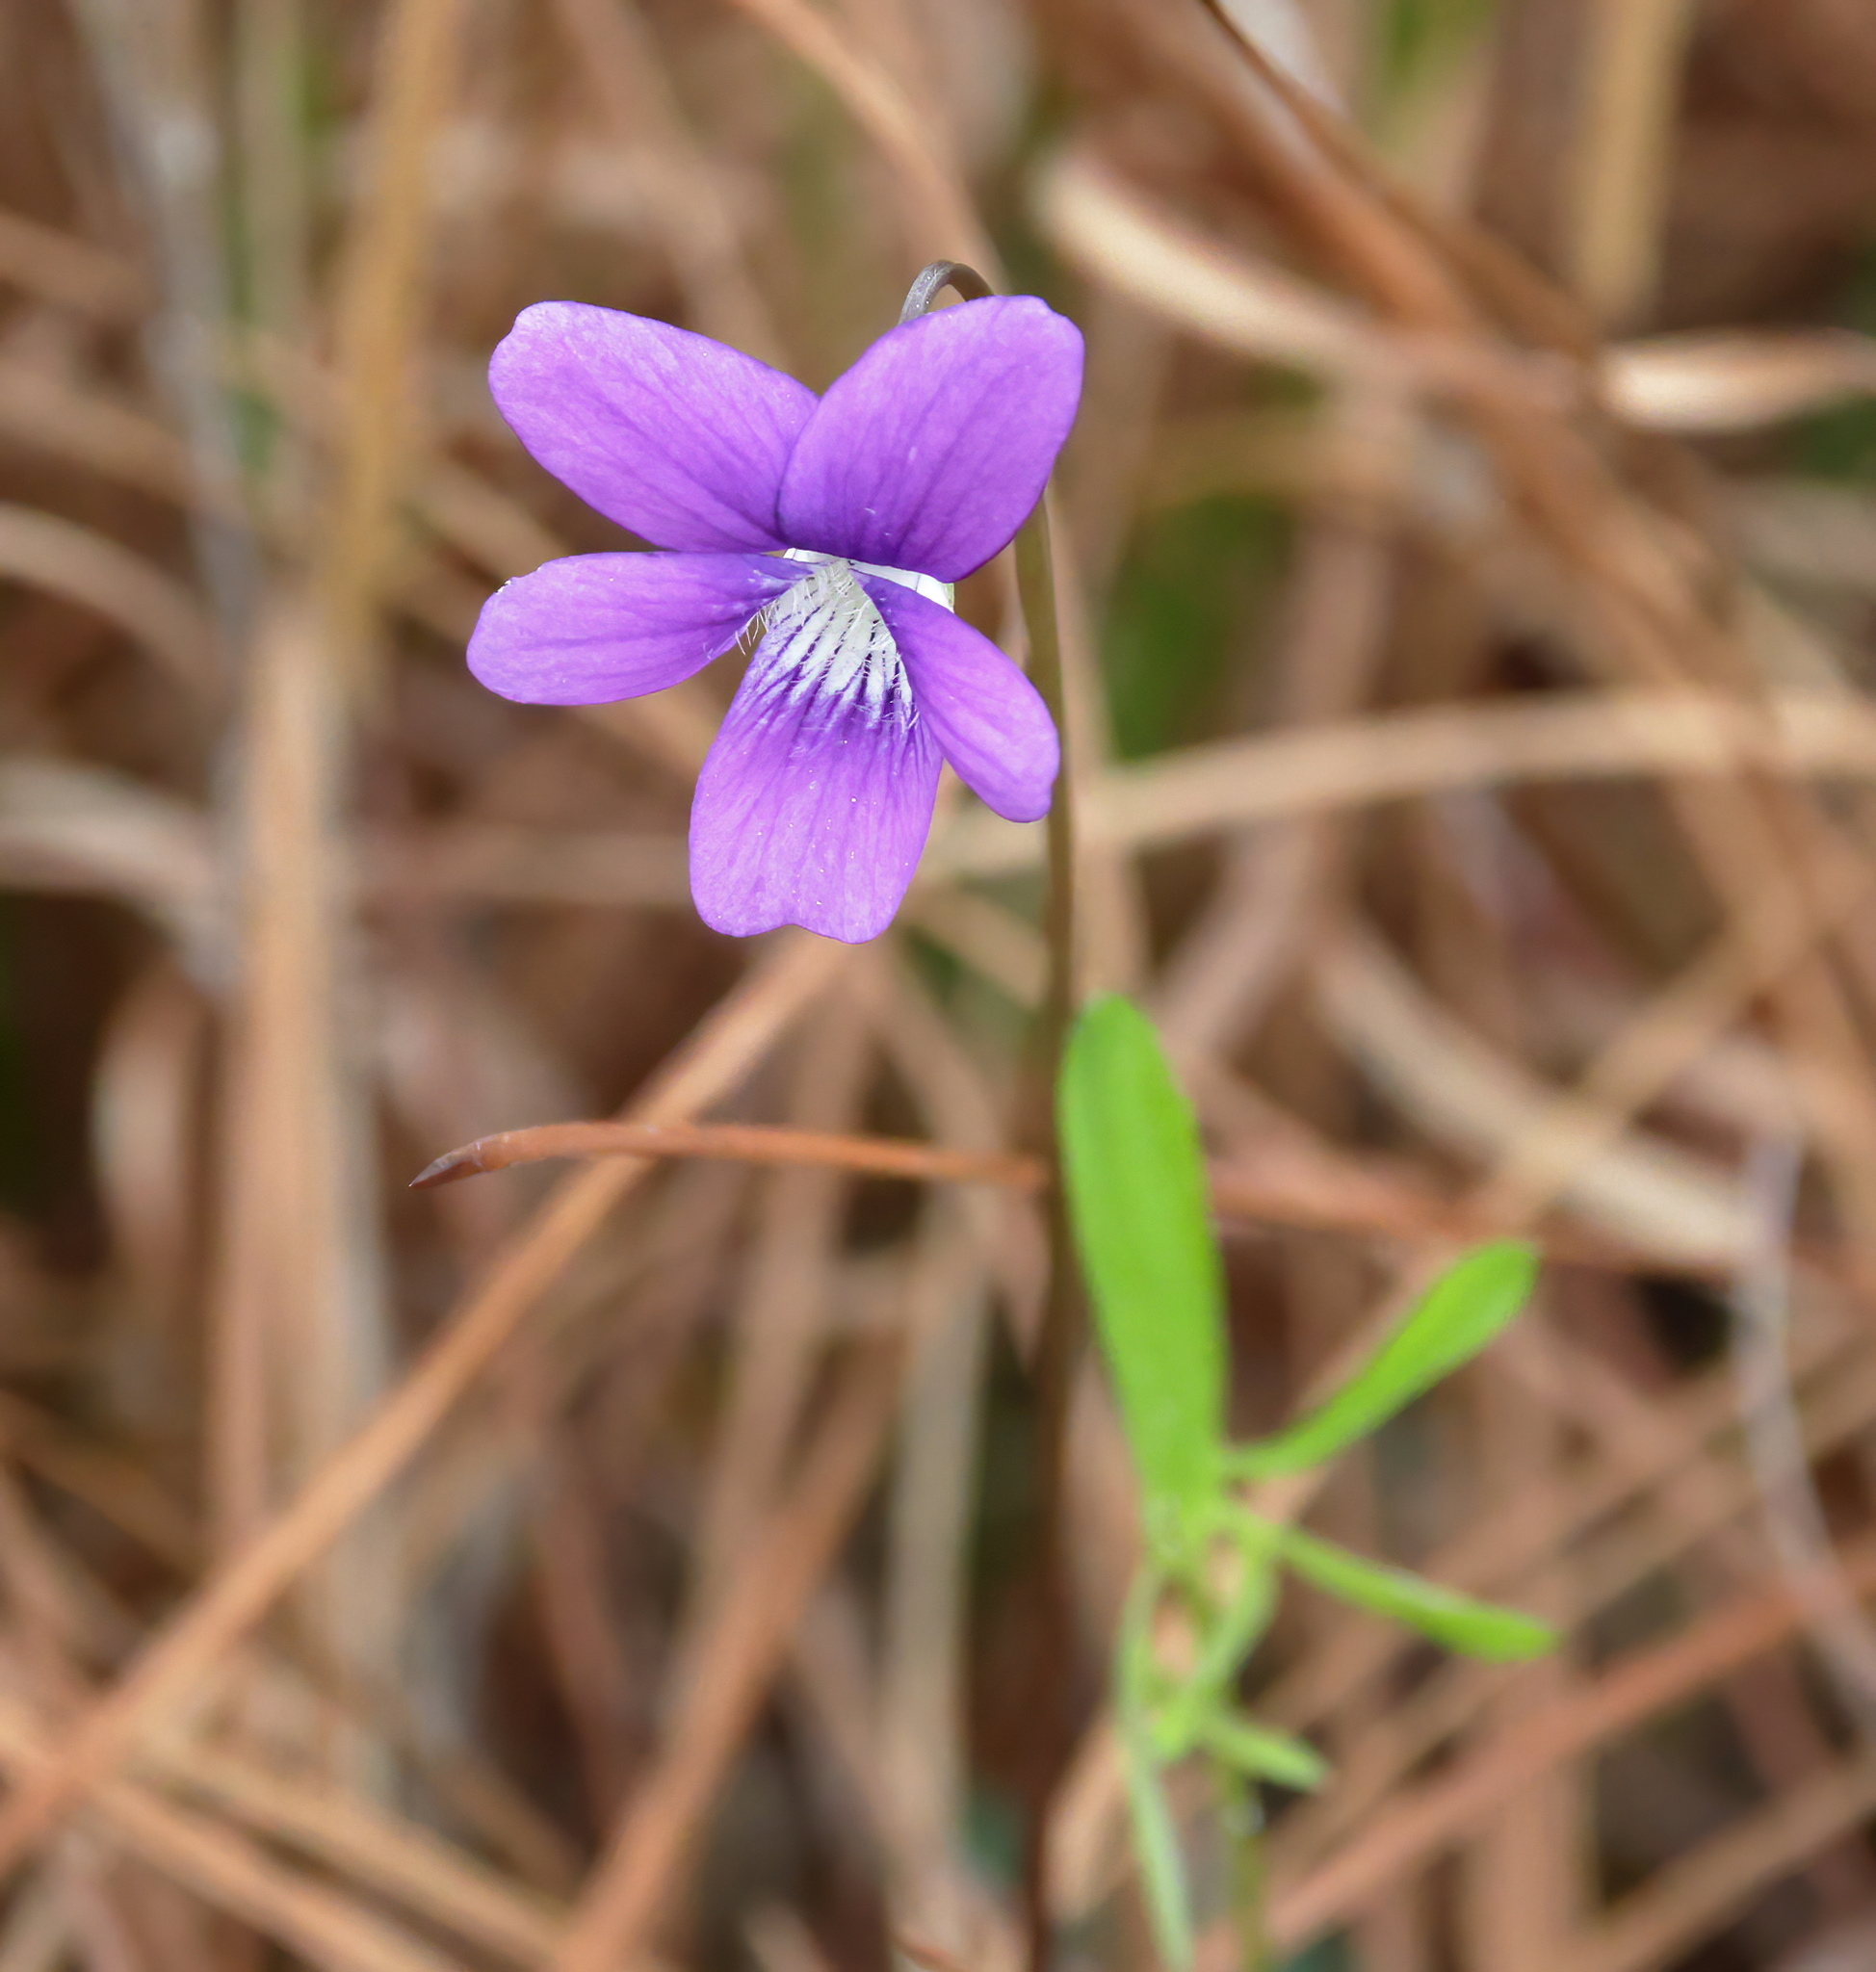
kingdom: Plantae
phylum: Tracheophyta
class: Magnoliopsida
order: Malpighiales
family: Violaceae
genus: Viola
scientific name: Viola septemloba
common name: Southern coast violet
